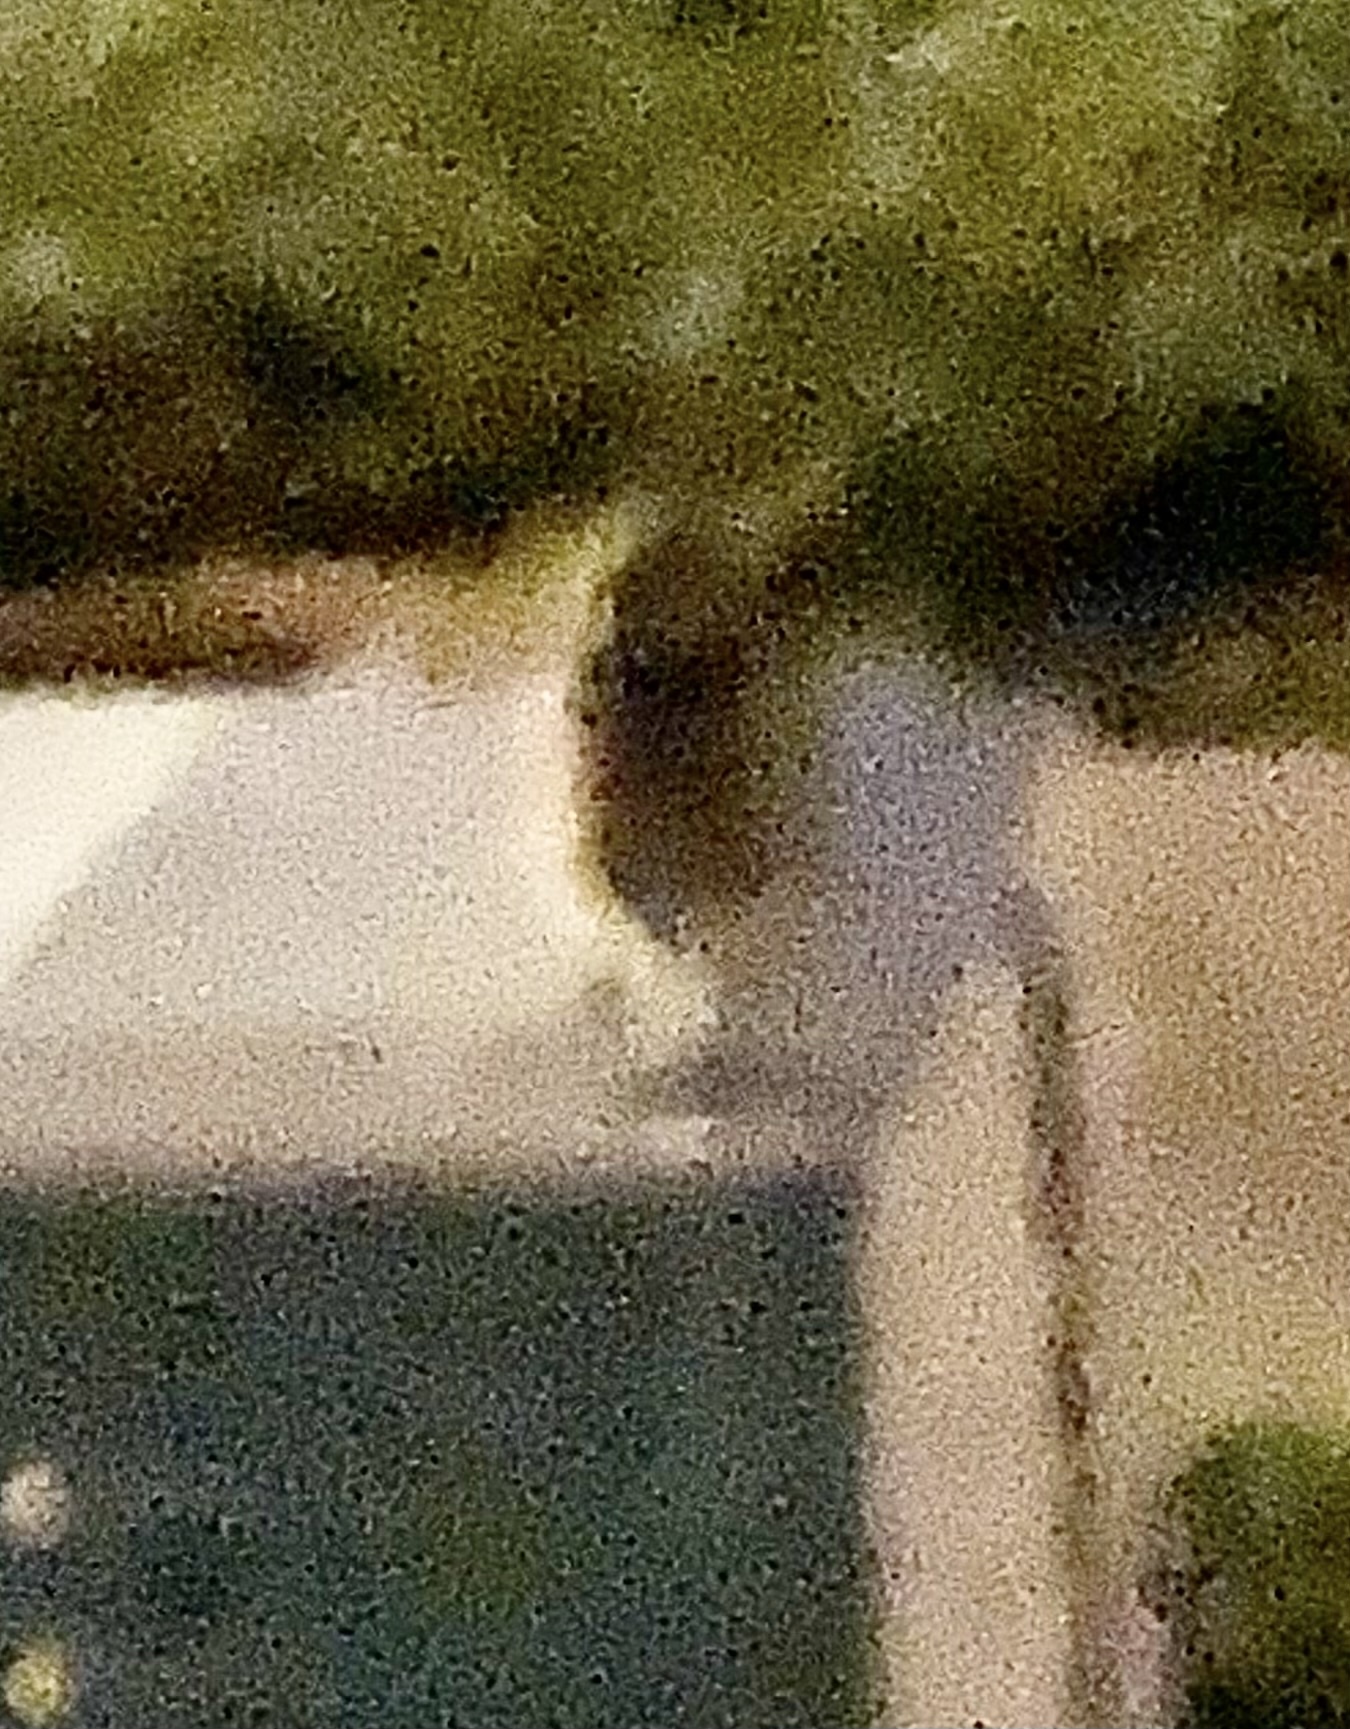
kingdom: Animalia
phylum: Chordata
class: Aves
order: Strigiformes
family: Strigidae
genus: Athene
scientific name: Athene cunicularia
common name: Burrowing owl
